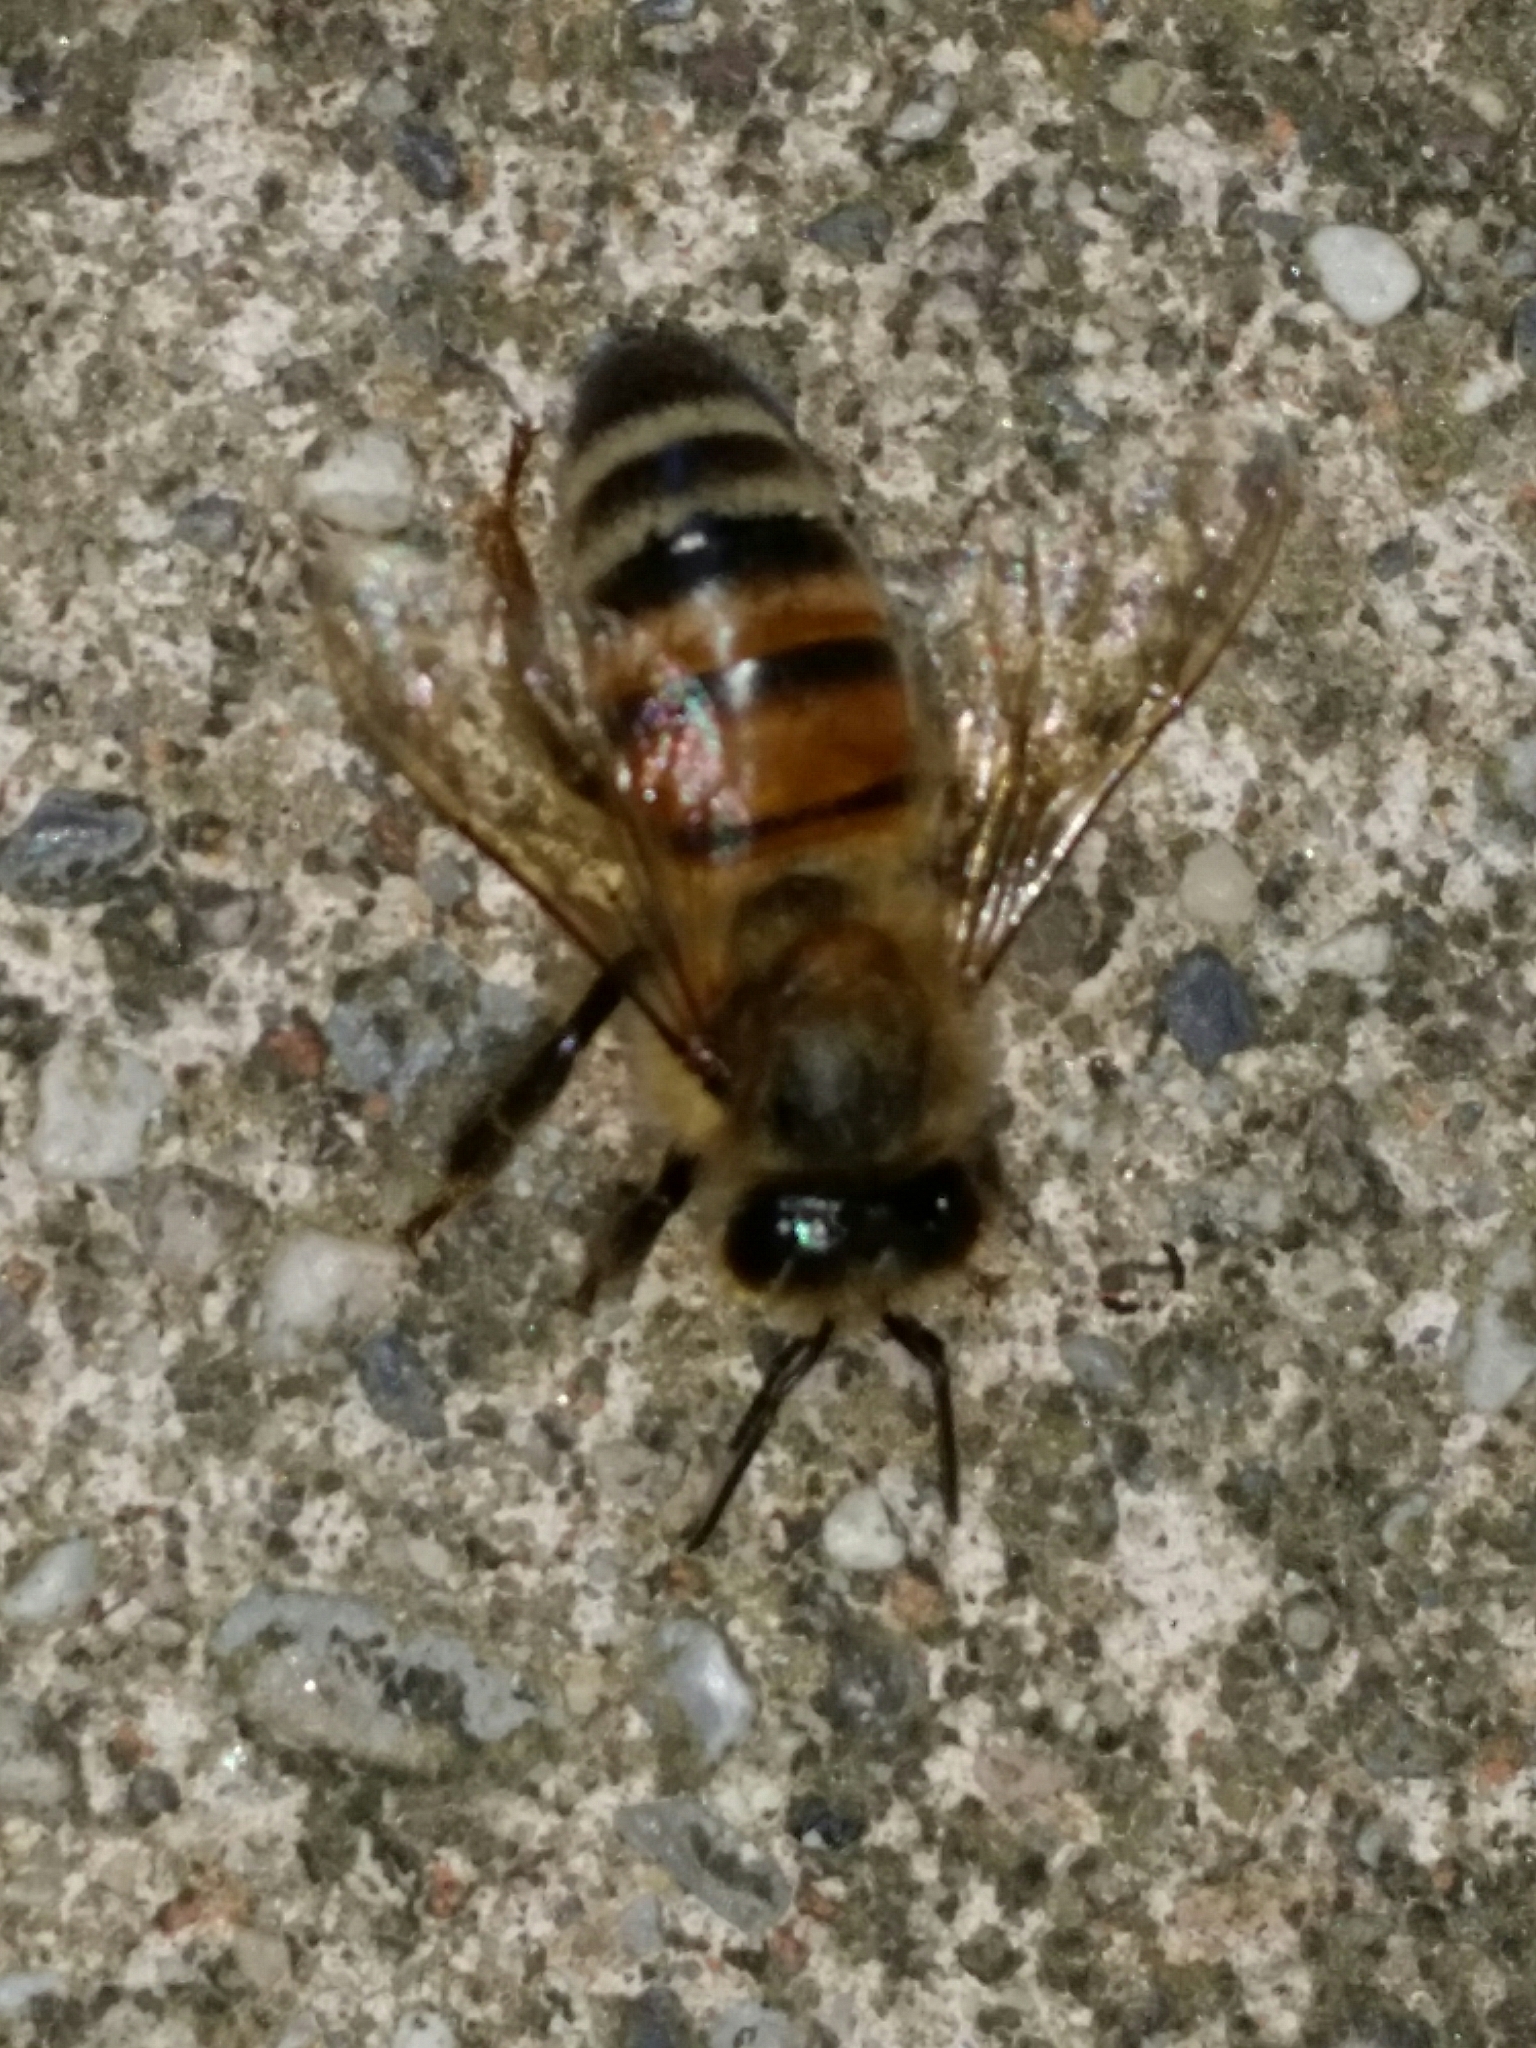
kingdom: Animalia
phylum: Arthropoda
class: Insecta
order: Hymenoptera
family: Apidae
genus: Apis
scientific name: Apis mellifera
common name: Honey bee
